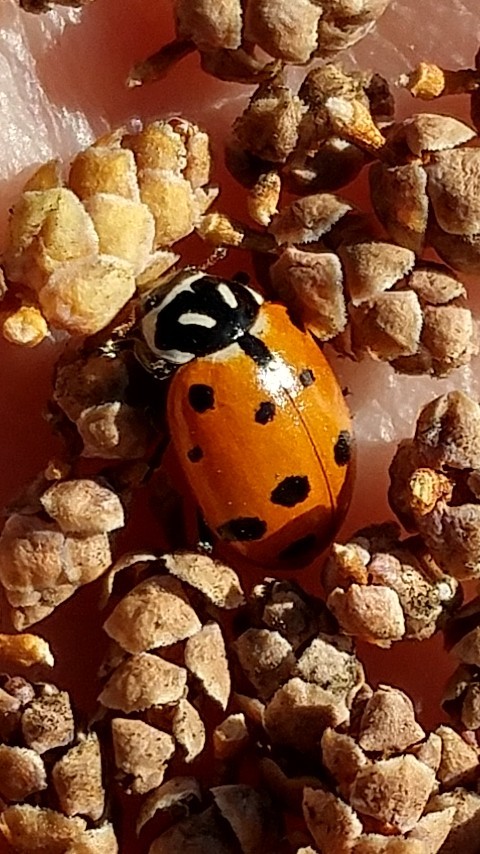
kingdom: Animalia
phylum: Arthropoda
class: Insecta
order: Coleoptera
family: Coccinellidae
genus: Hippodamia
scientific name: Hippodamia convergens
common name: Convergent lady beetle
